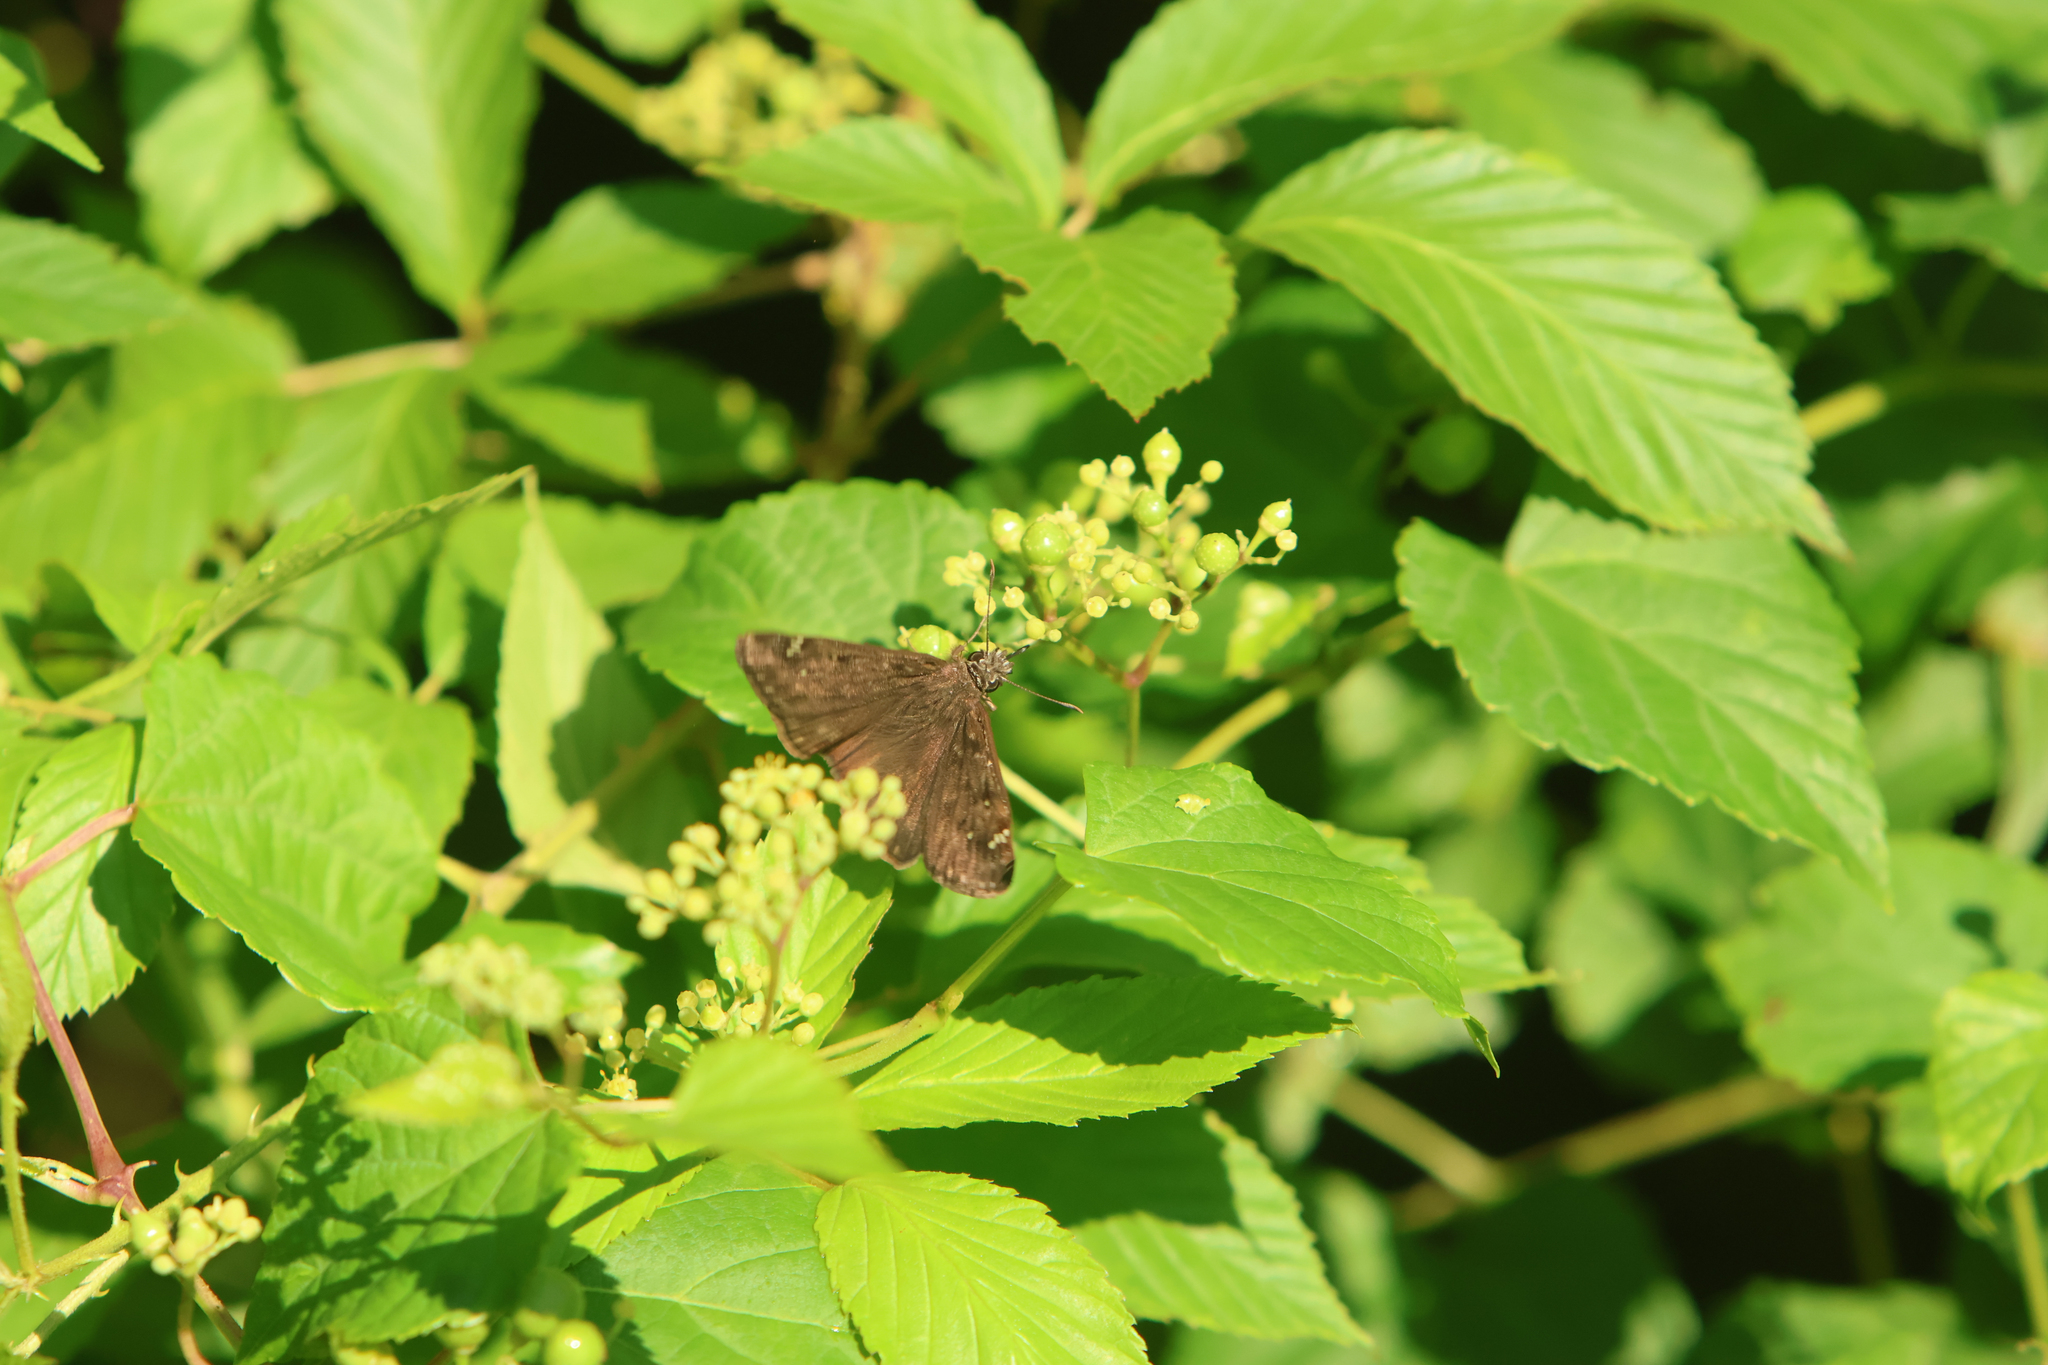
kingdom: Animalia
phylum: Arthropoda
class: Insecta
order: Lepidoptera
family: Hesperiidae
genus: Erynnis
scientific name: Erynnis horatius
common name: Horace's duskywing
